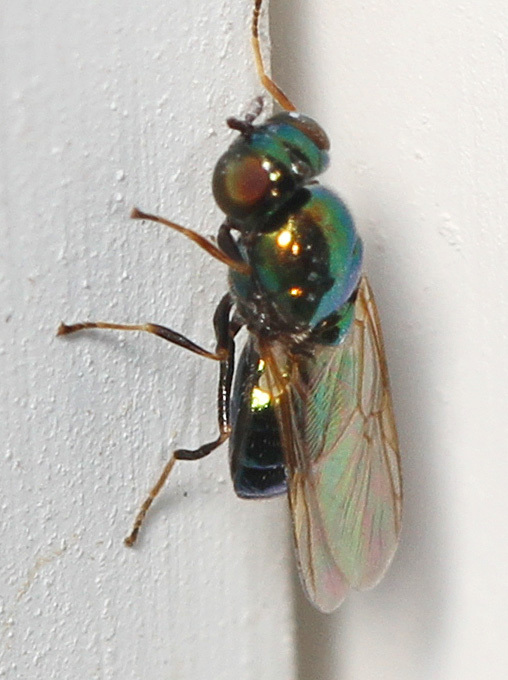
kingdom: Animalia
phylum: Arthropoda
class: Insecta
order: Diptera
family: Stratiomyidae
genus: Microchrysa
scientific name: Microchrysa polita
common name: Black-horned gem
